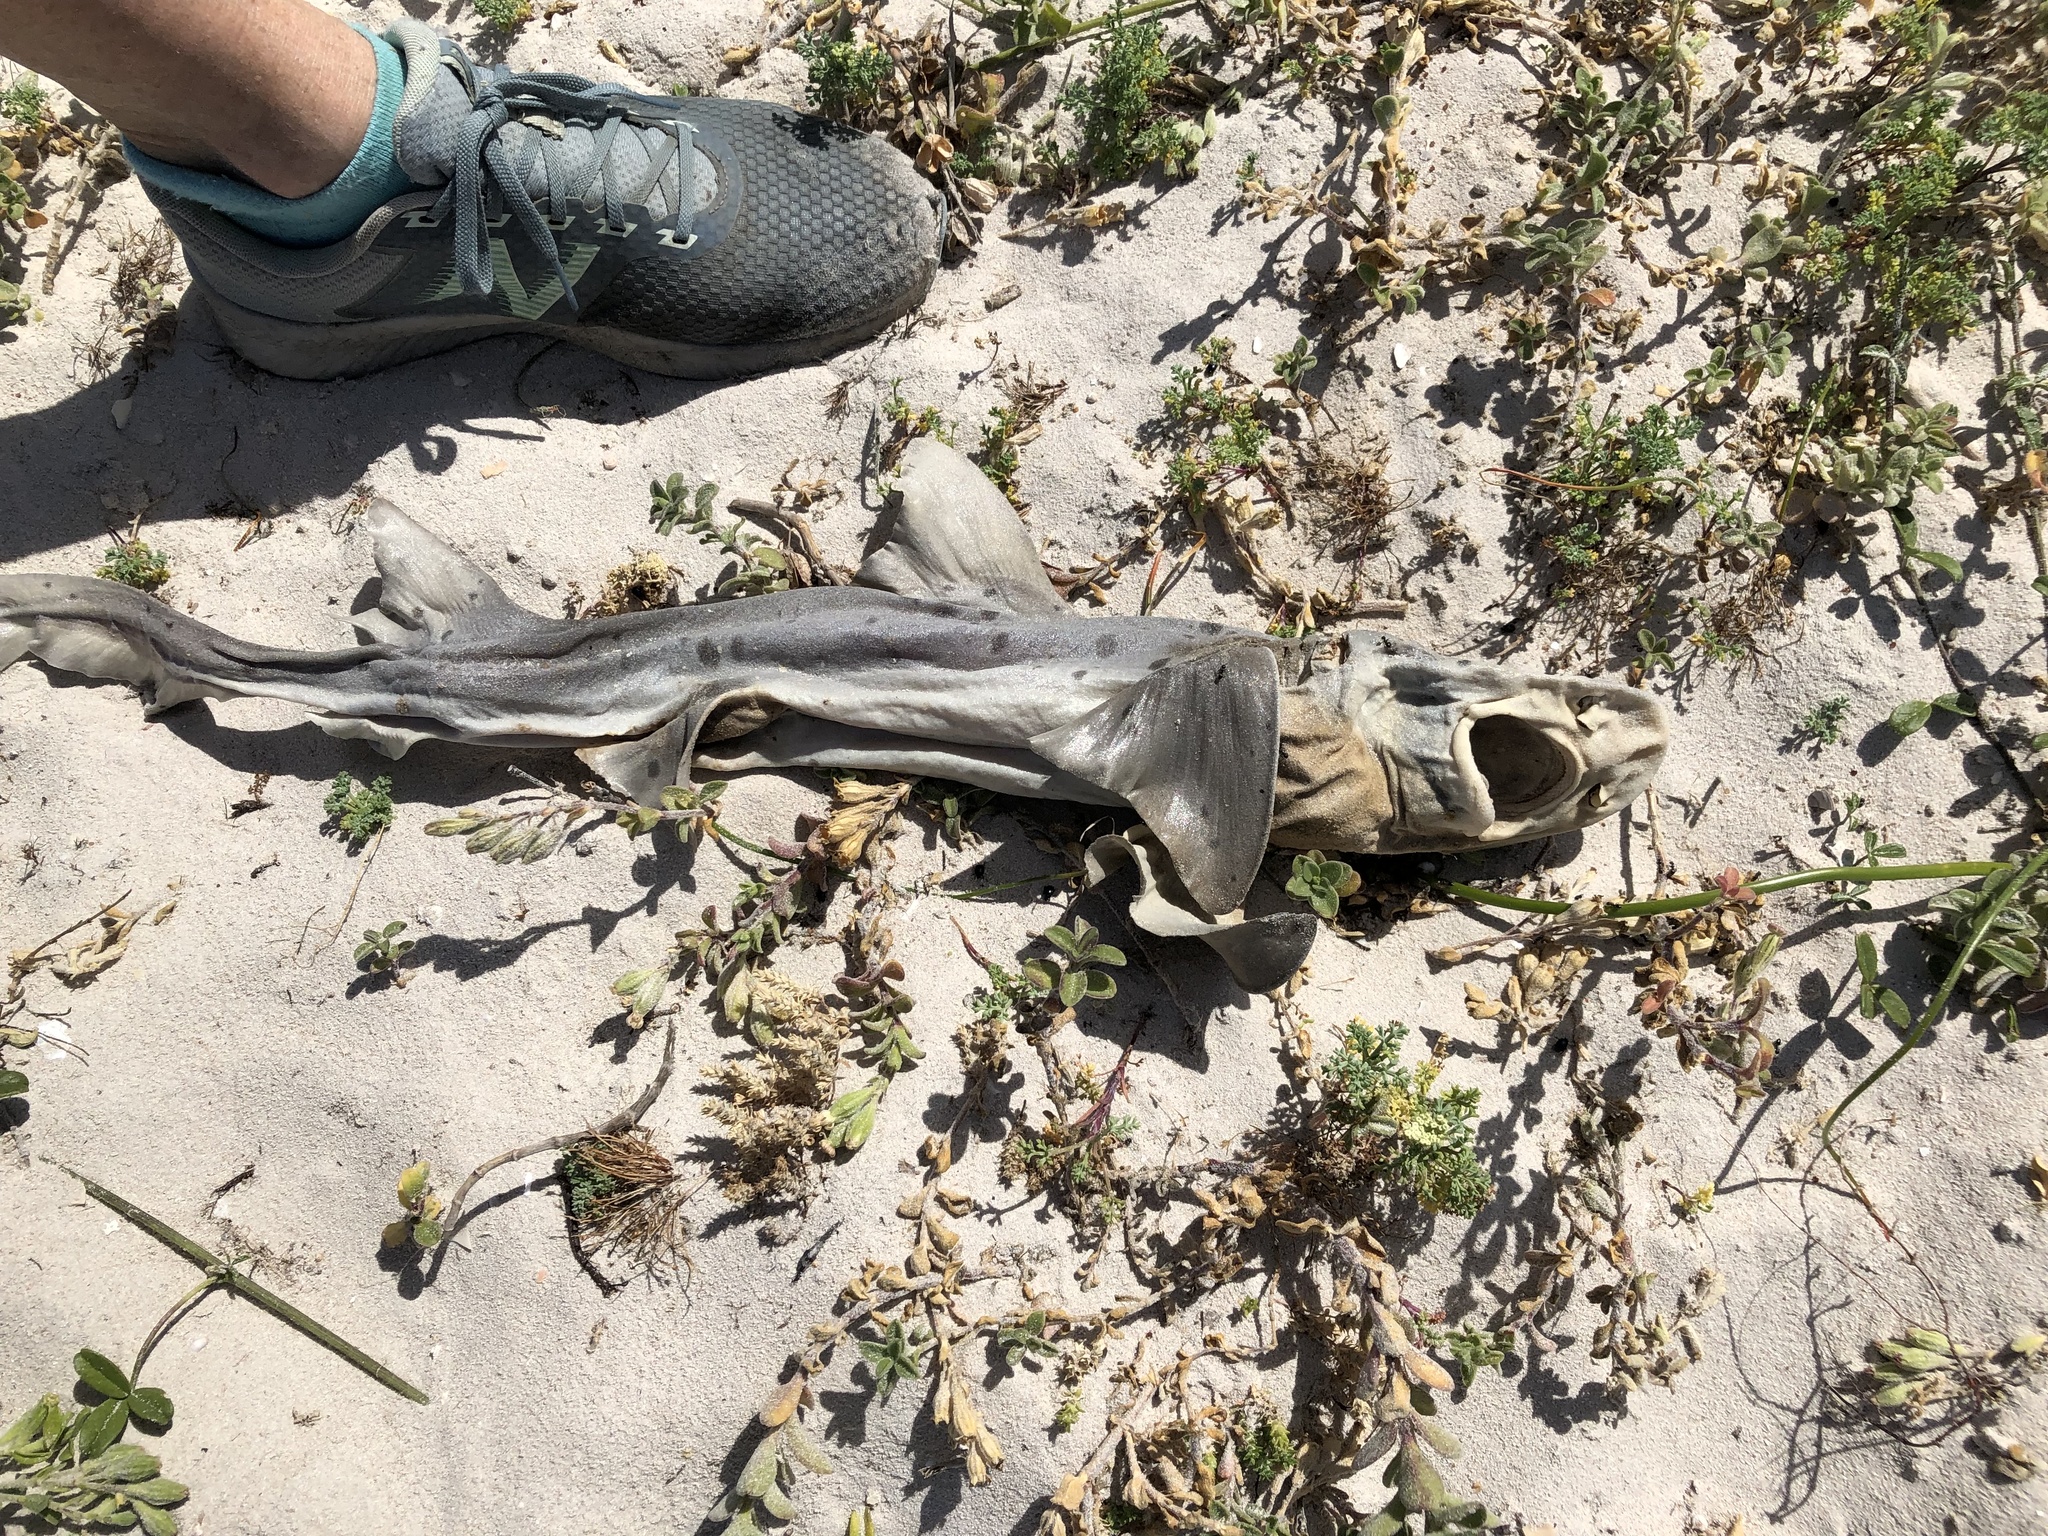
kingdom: Animalia
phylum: Chordata
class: Elasmobranchii
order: Carcharhiniformes
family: Triakidae
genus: Triakis
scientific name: Triakis megalopterus
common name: Spotted gully shark
